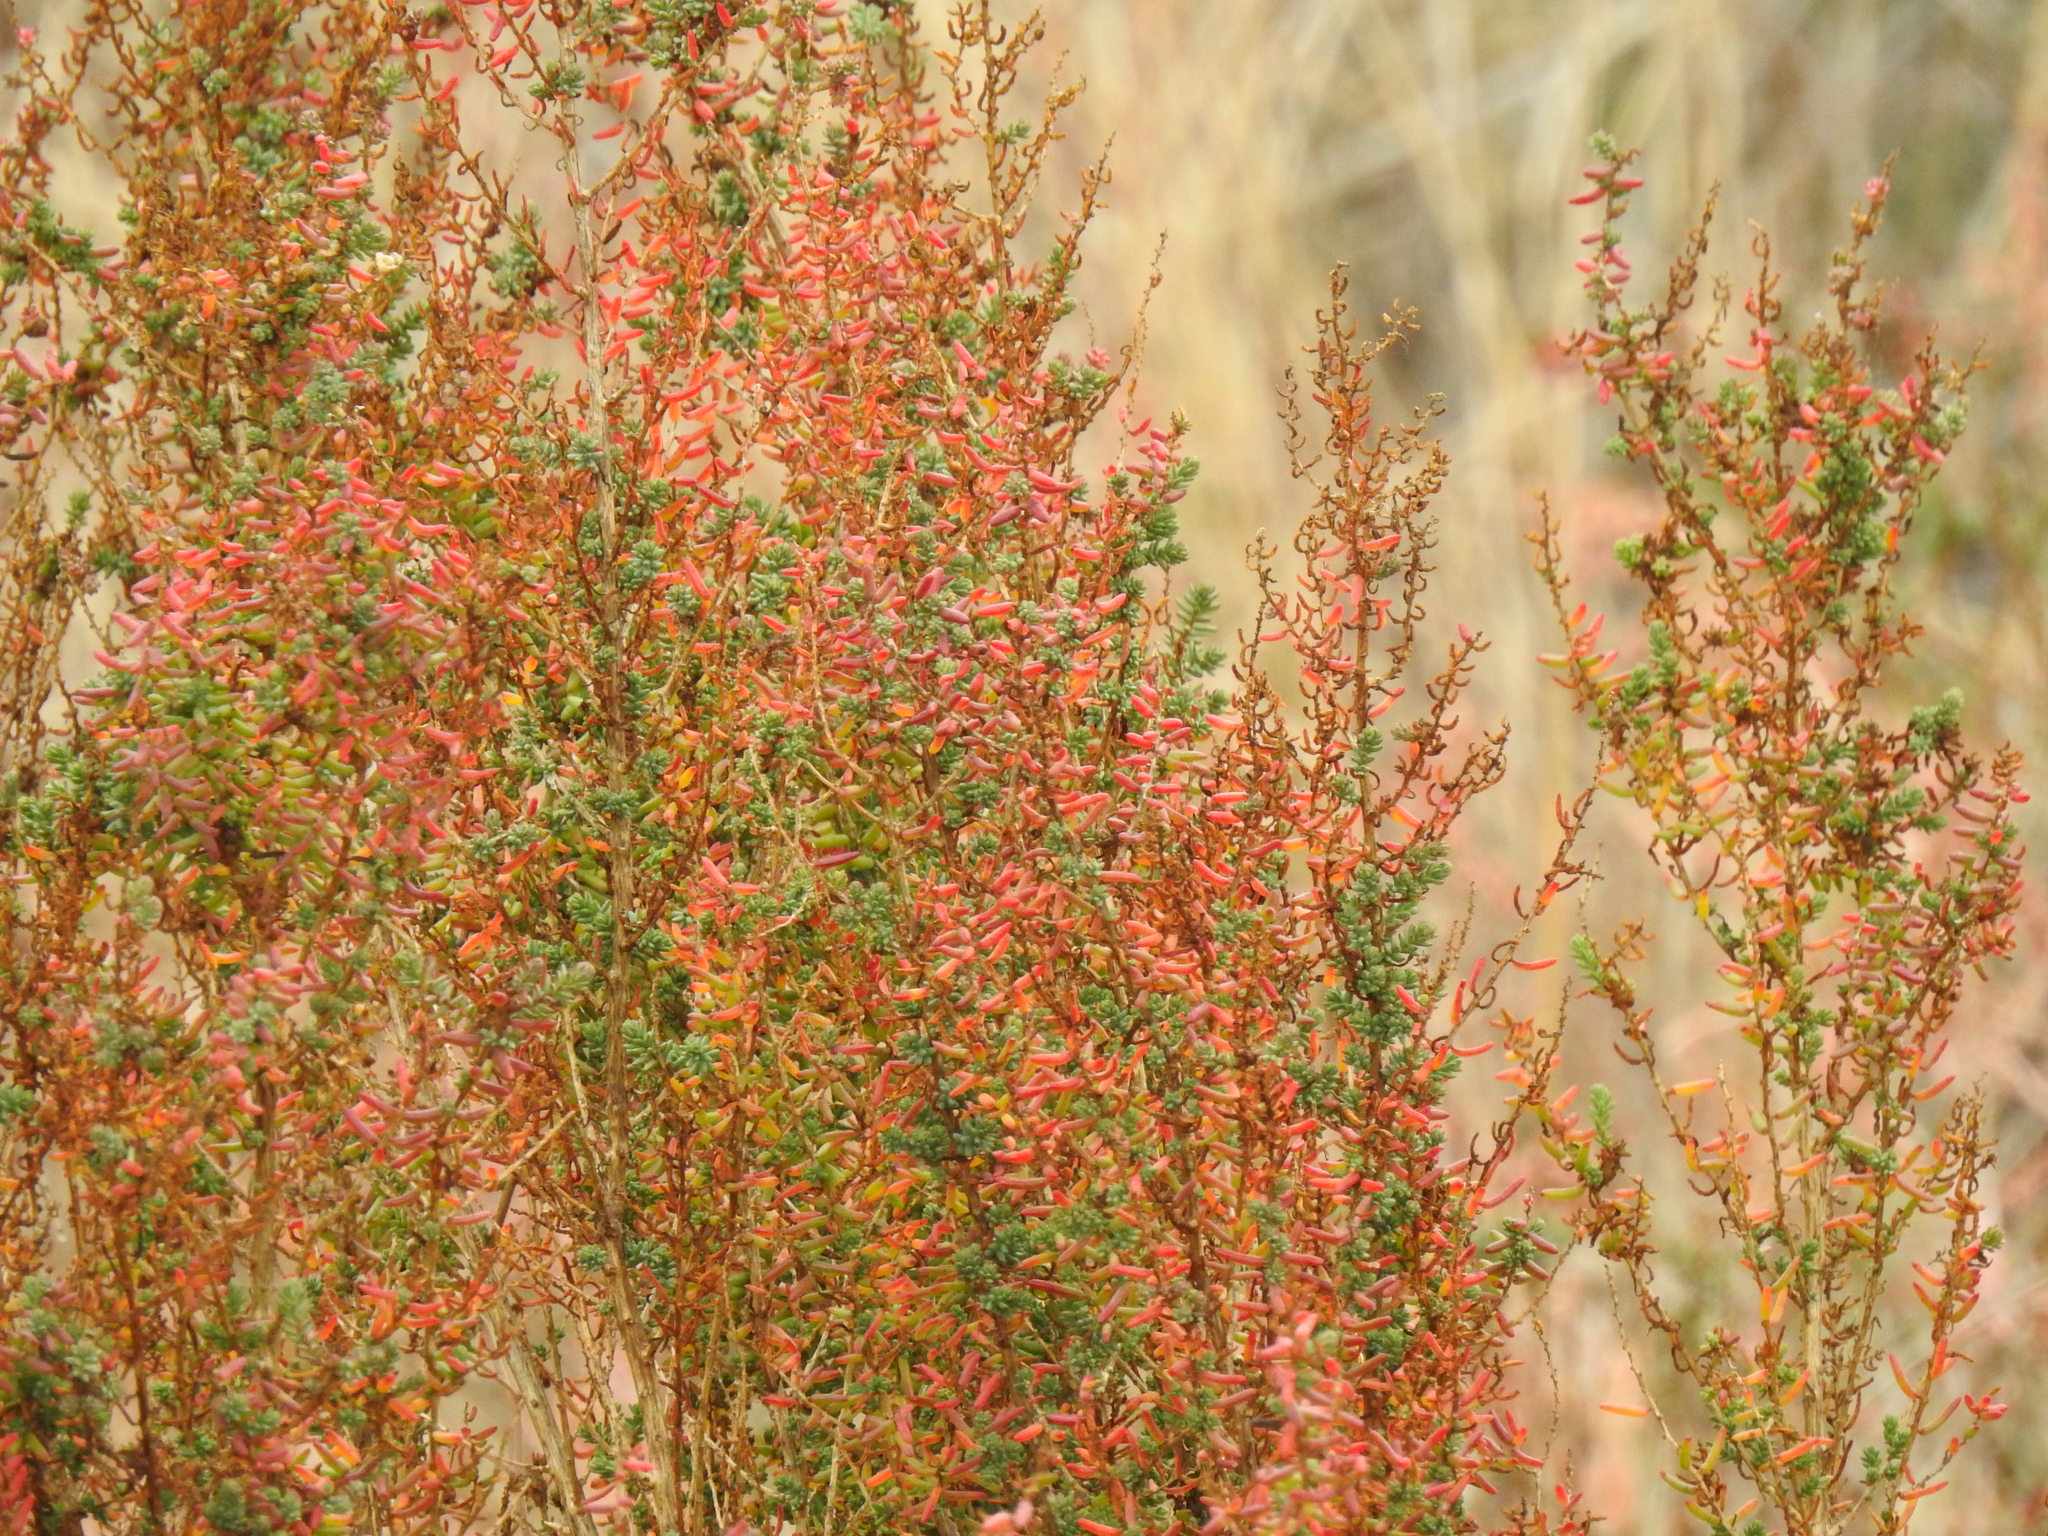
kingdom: Plantae
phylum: Tracheophyta
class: Magnoliopsida
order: Caryophyllales
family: Amaranthaceae
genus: Suaeda
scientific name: Suaeda vera
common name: Shrubby sea-blite
